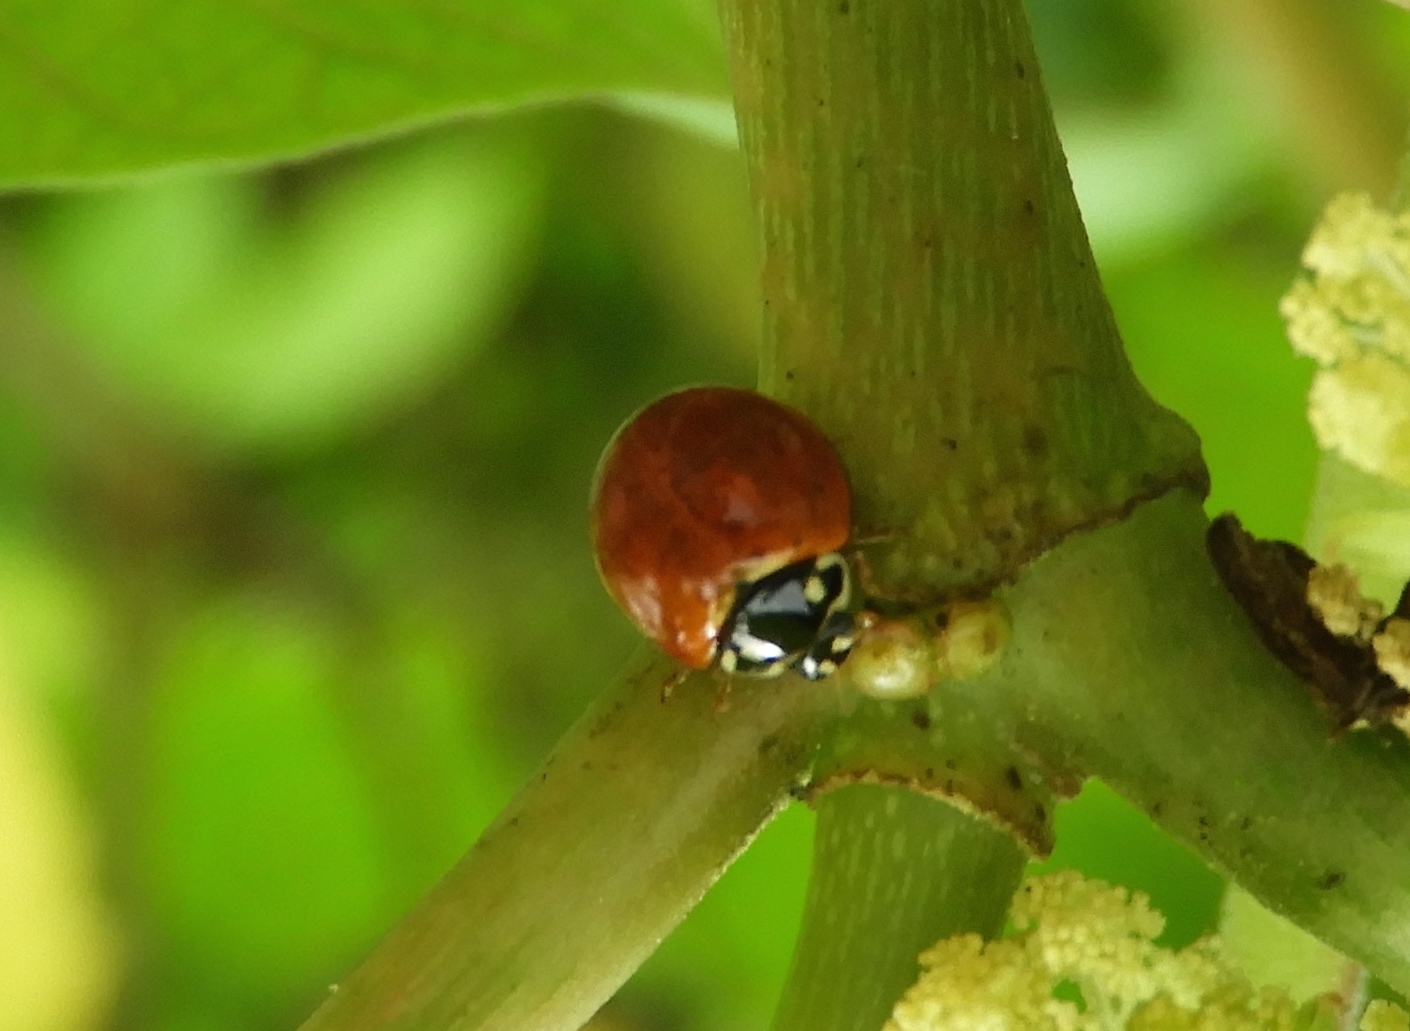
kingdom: Animalia
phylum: Arthropoda
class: Insecta
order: Coleoptera
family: Coccinellidae
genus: Cycloneda
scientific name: Cycloneda sanguinea
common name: Ladybird beetle
